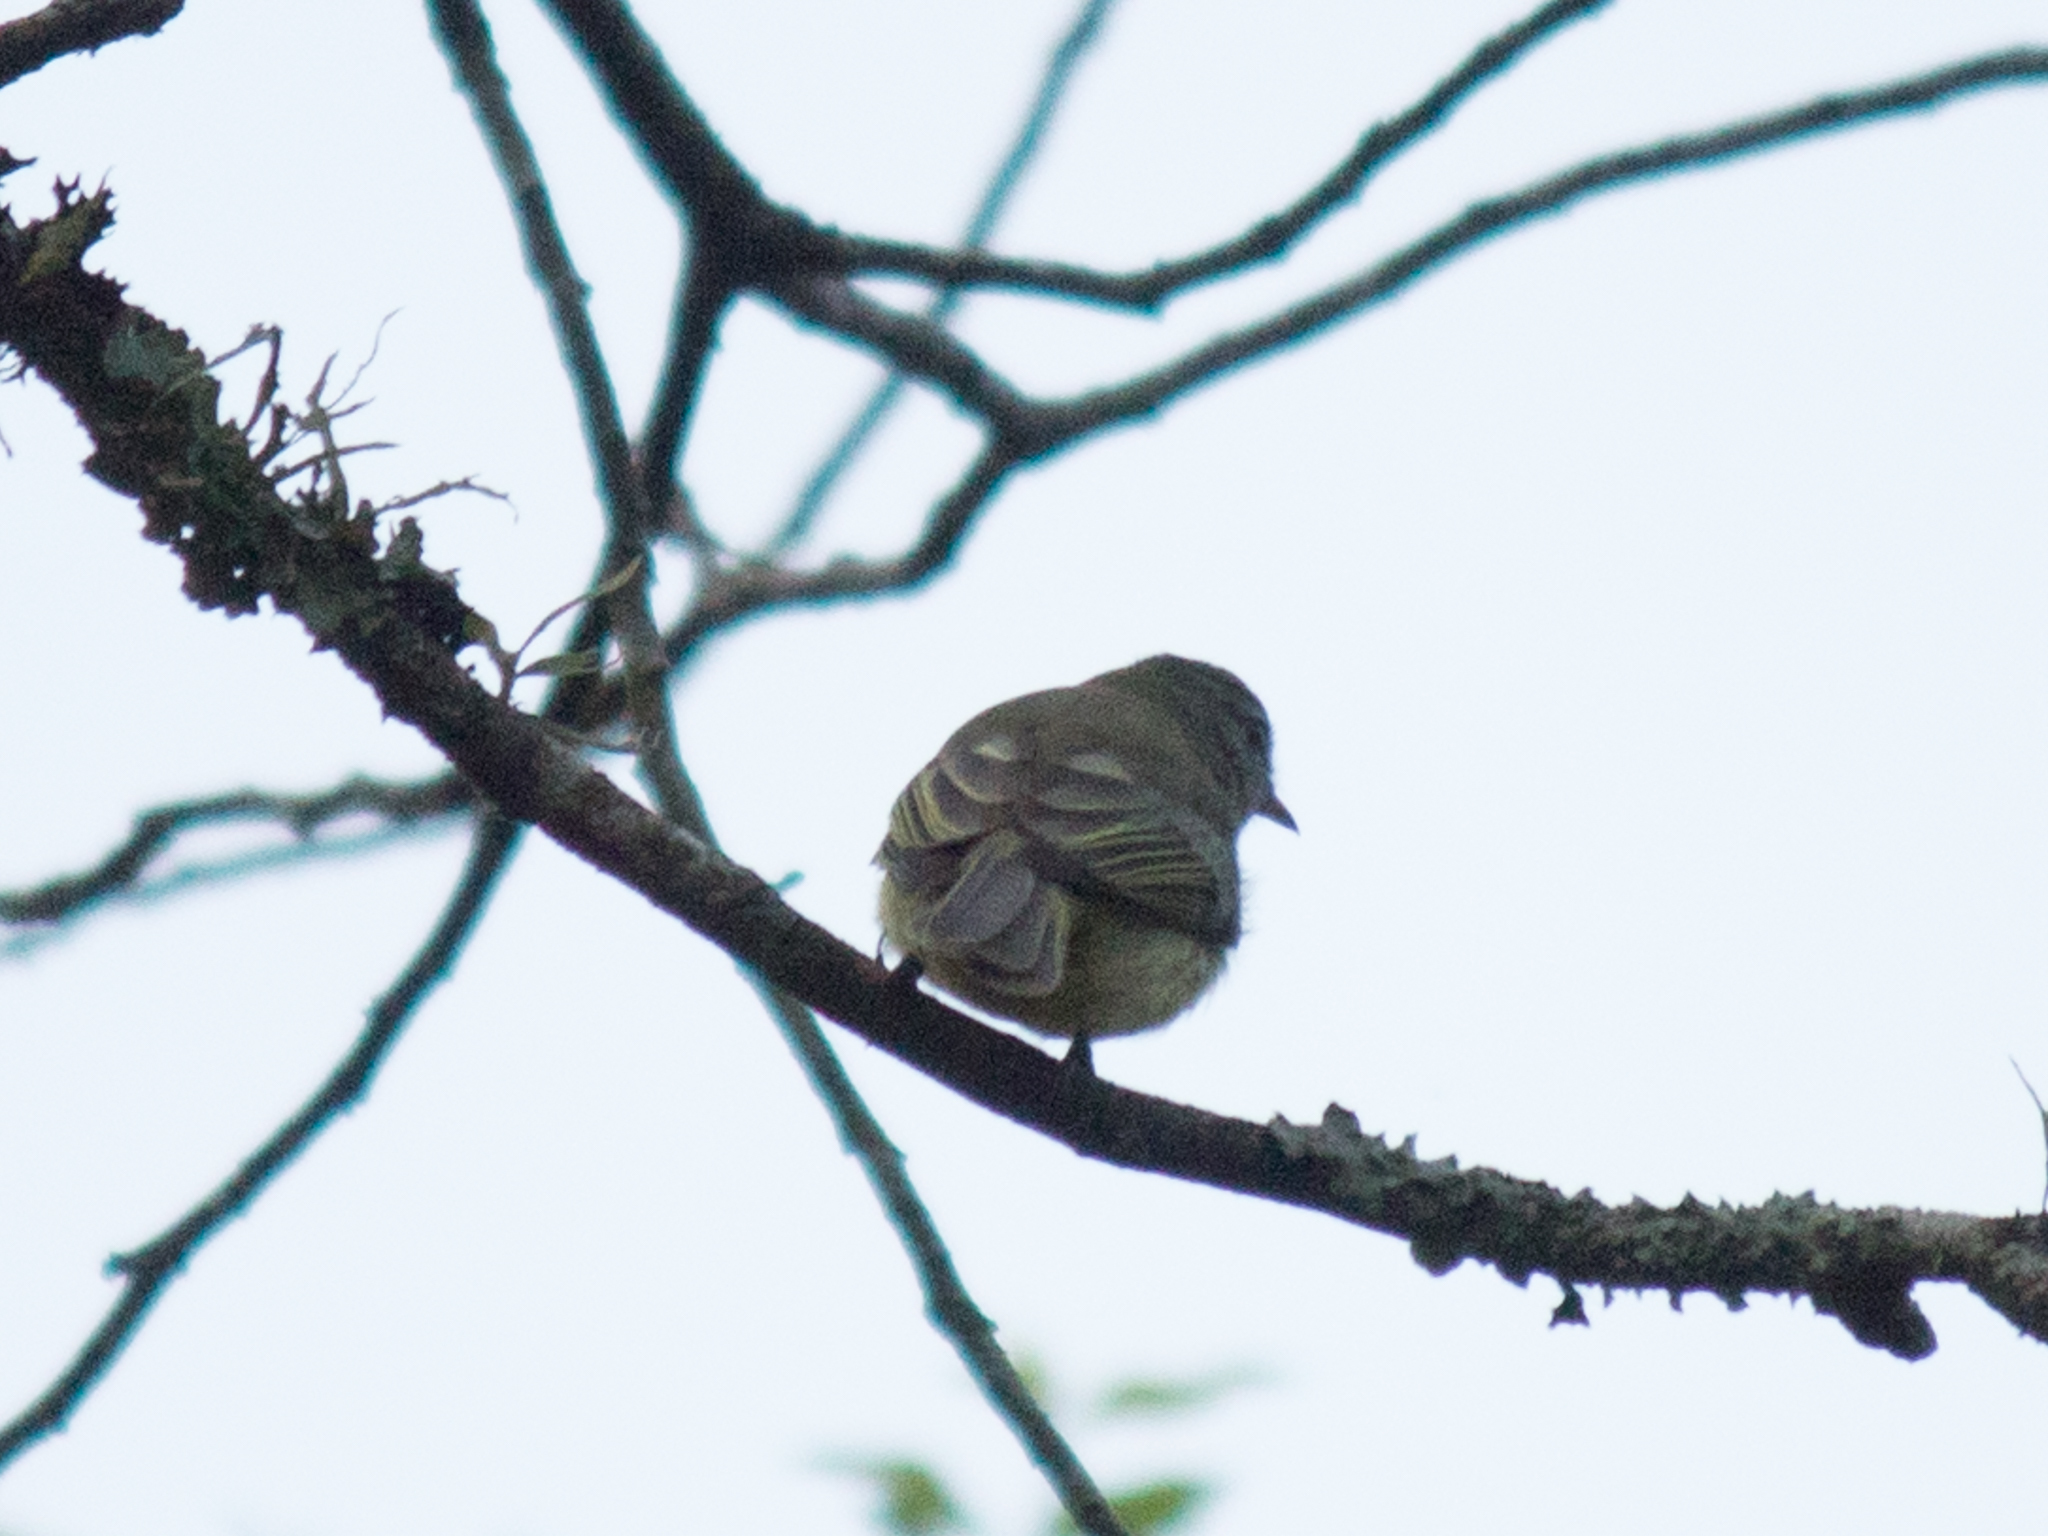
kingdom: Animalia
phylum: Chordata
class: Aves
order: Passeriformes
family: Tyrannidae
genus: Myiopagis
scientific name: Myiopagis viridicata
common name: Greenish elaenia
